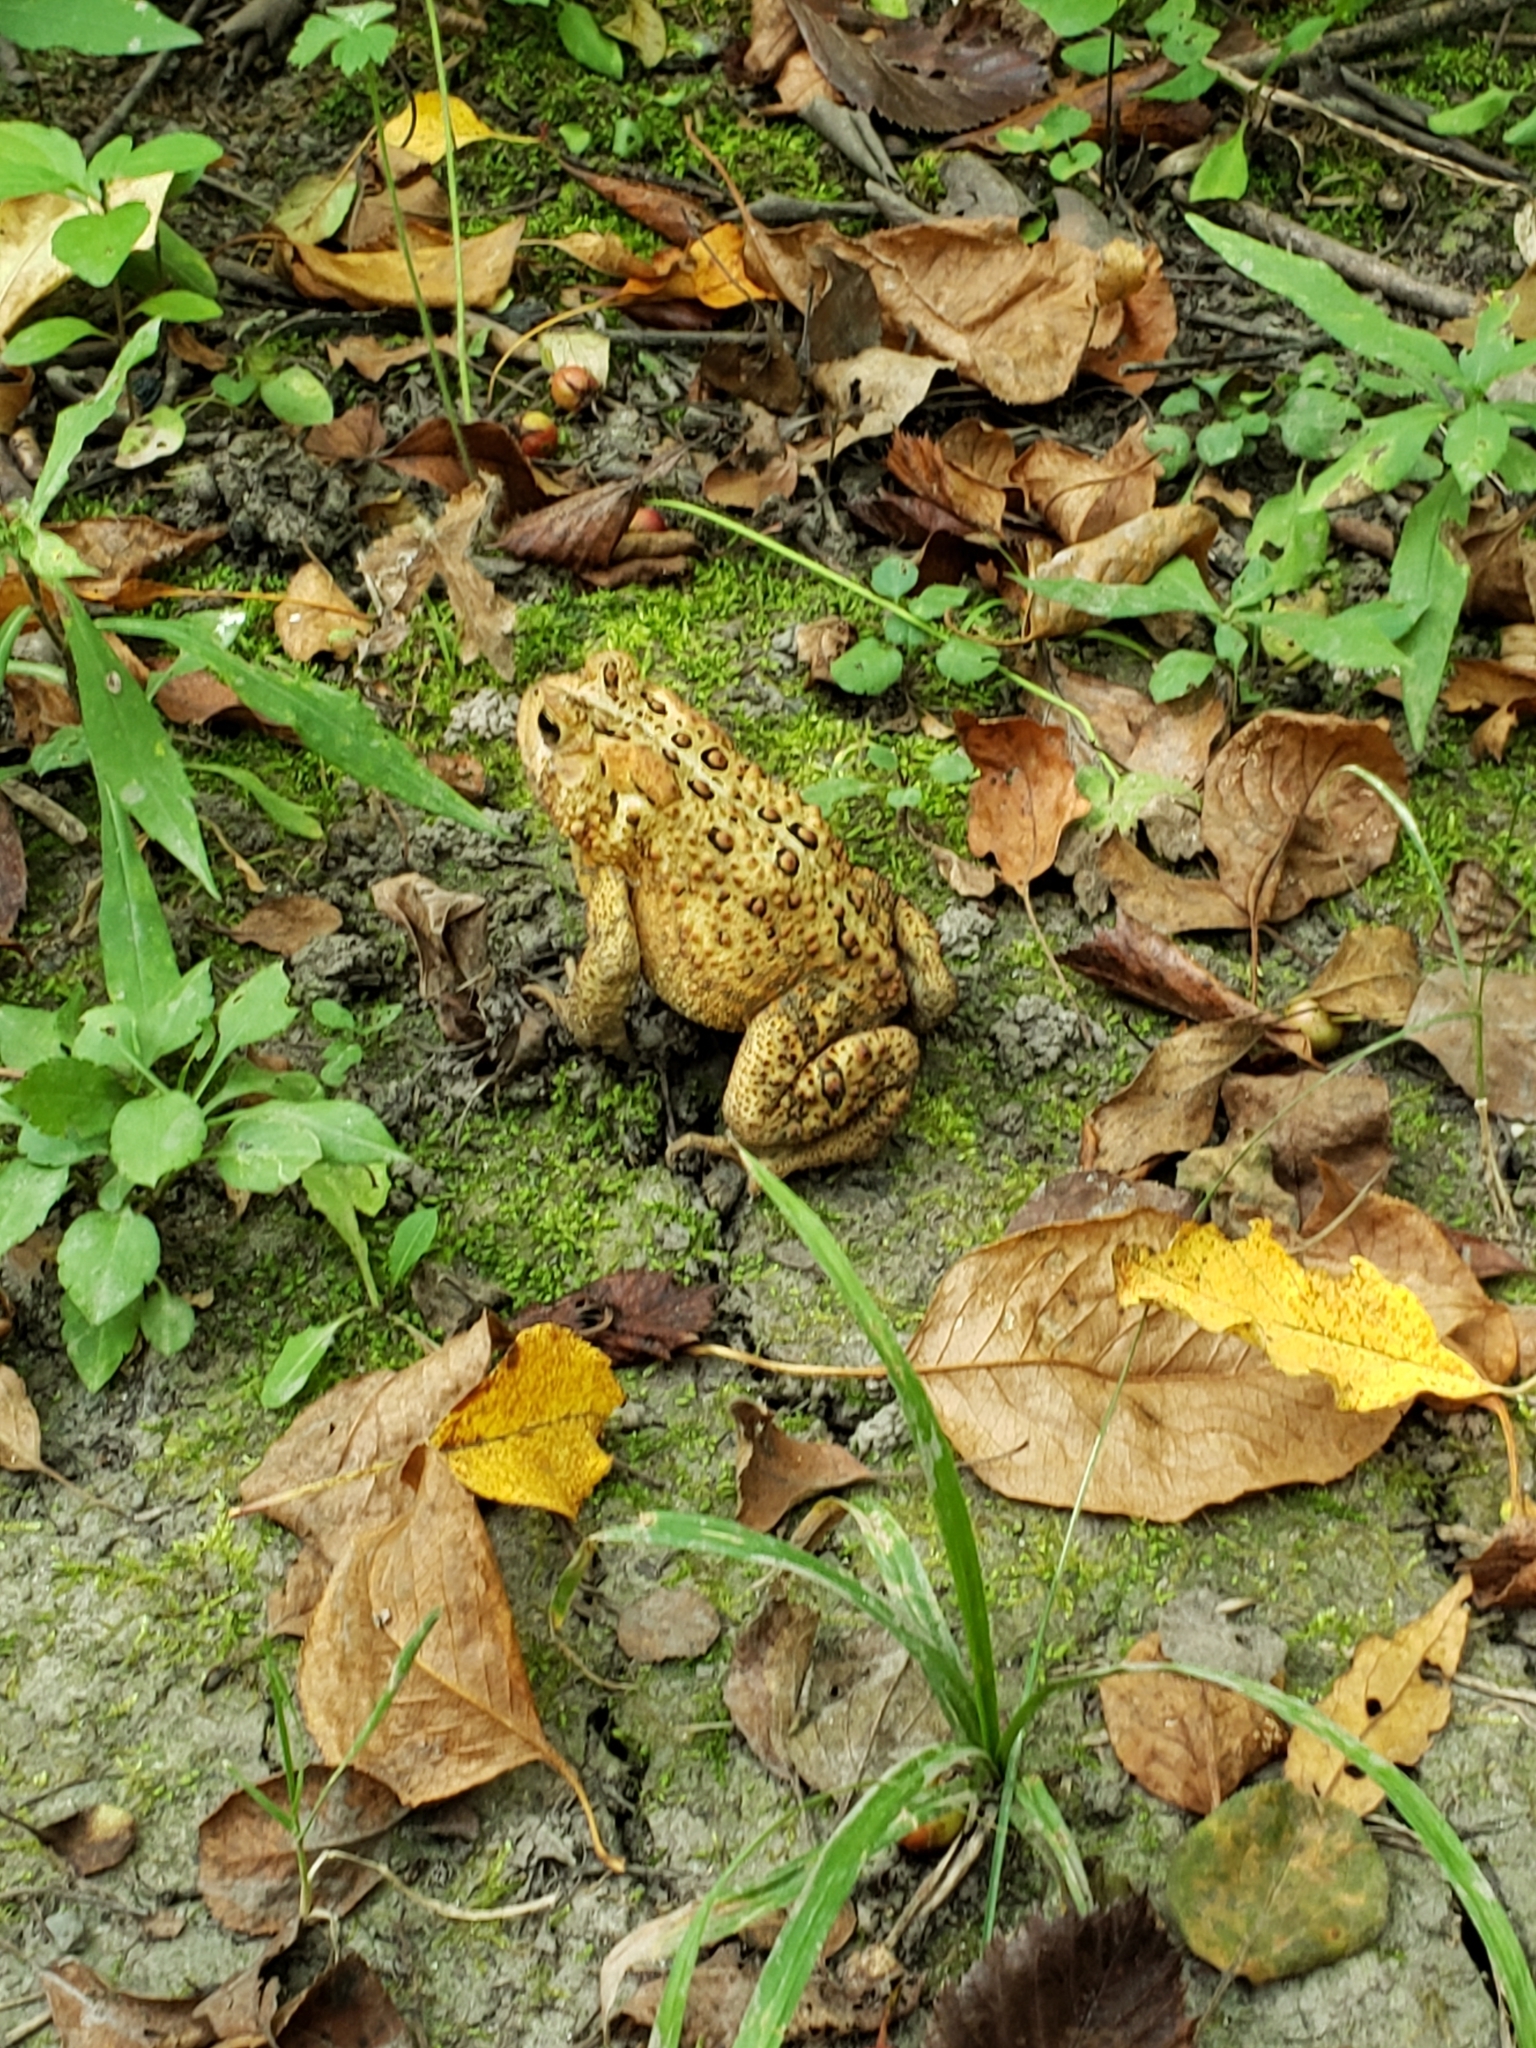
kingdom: Animalia
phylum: Chordata
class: Amphibia
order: Anura
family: Bufonidae
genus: Anaxyrus
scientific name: Anaxyrus americanus
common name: American toad
